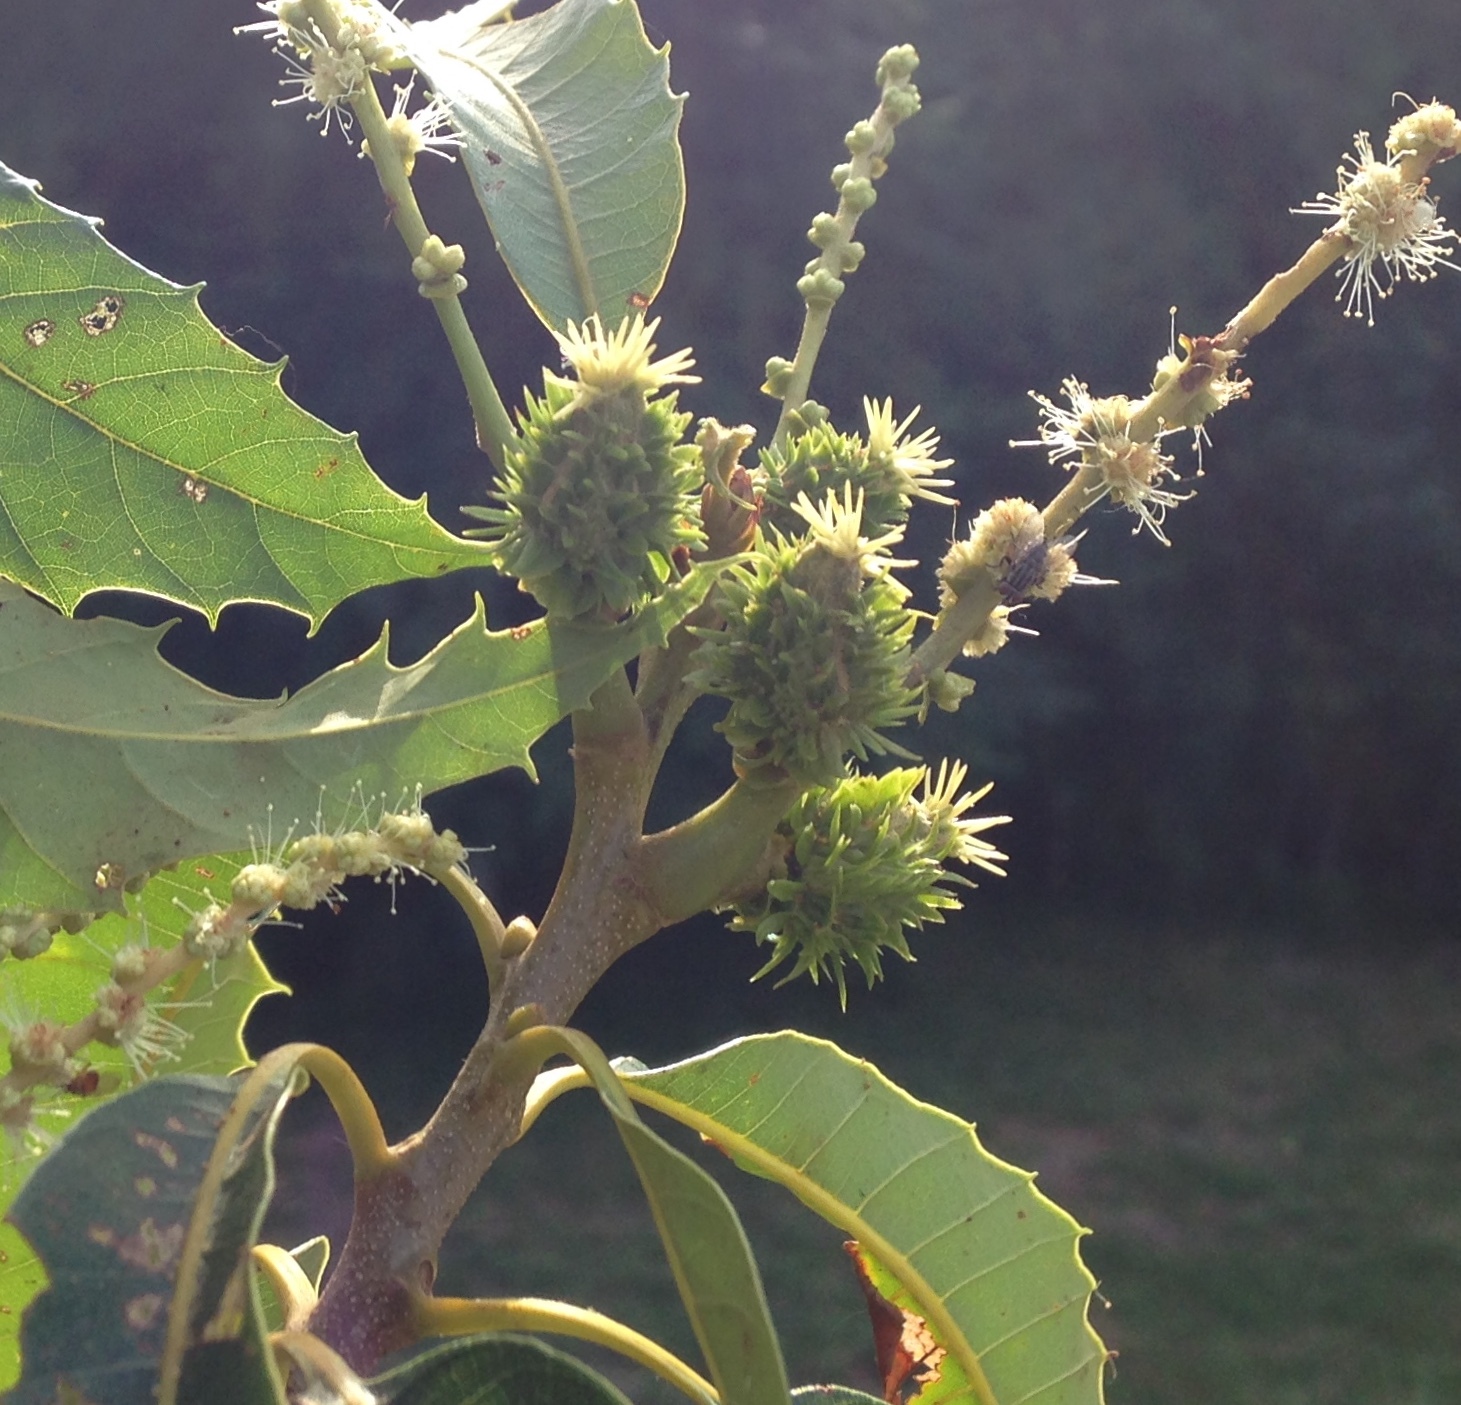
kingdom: Plantae
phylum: Tracheophyta
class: Magnoliopsida
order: Fagales
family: Fagaceae
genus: Castanea
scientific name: Castanea dentata
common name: American chestnut
